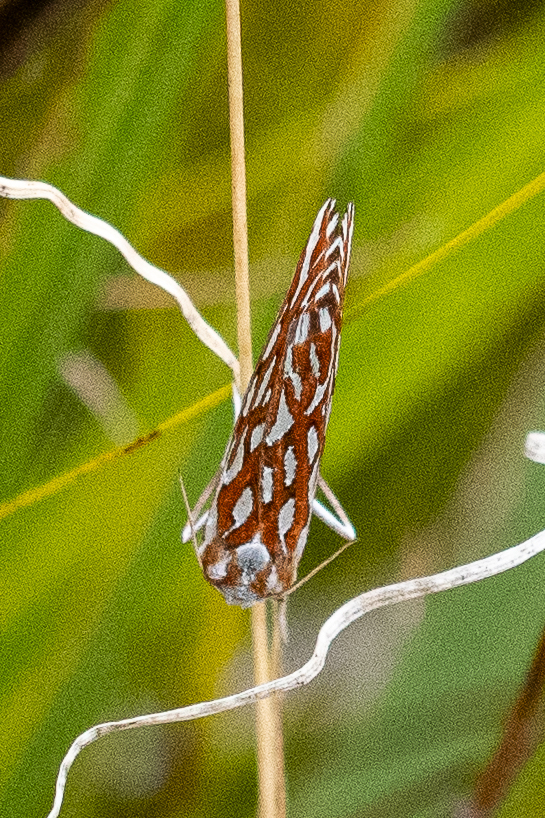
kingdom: Animalia
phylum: Arthropoda
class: Insecta
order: Lepidoptera
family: Geometridae
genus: Argyrophora
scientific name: Argyrophora trofonia
